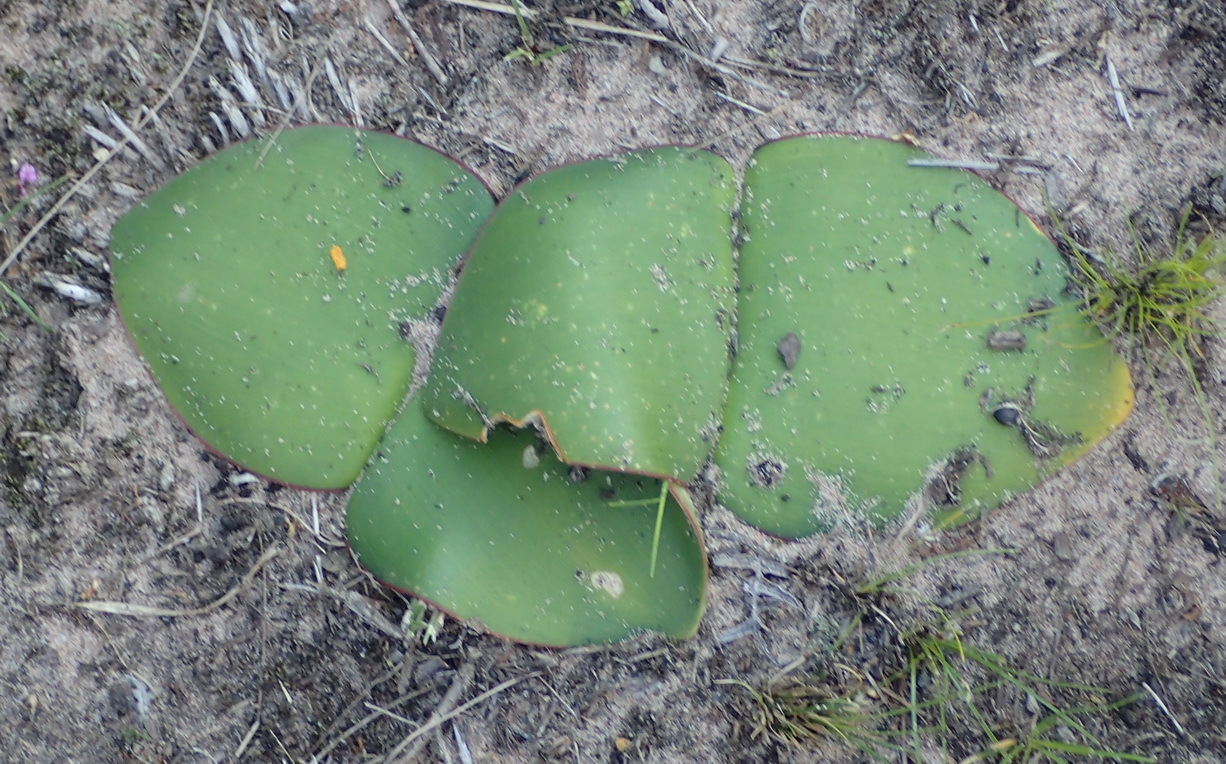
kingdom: Plantae
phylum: Tracheophyta
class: Liliopsida
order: Asparagales
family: Amaryllidaceae
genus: Haemanthus
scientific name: Haemanthus sanguineus
